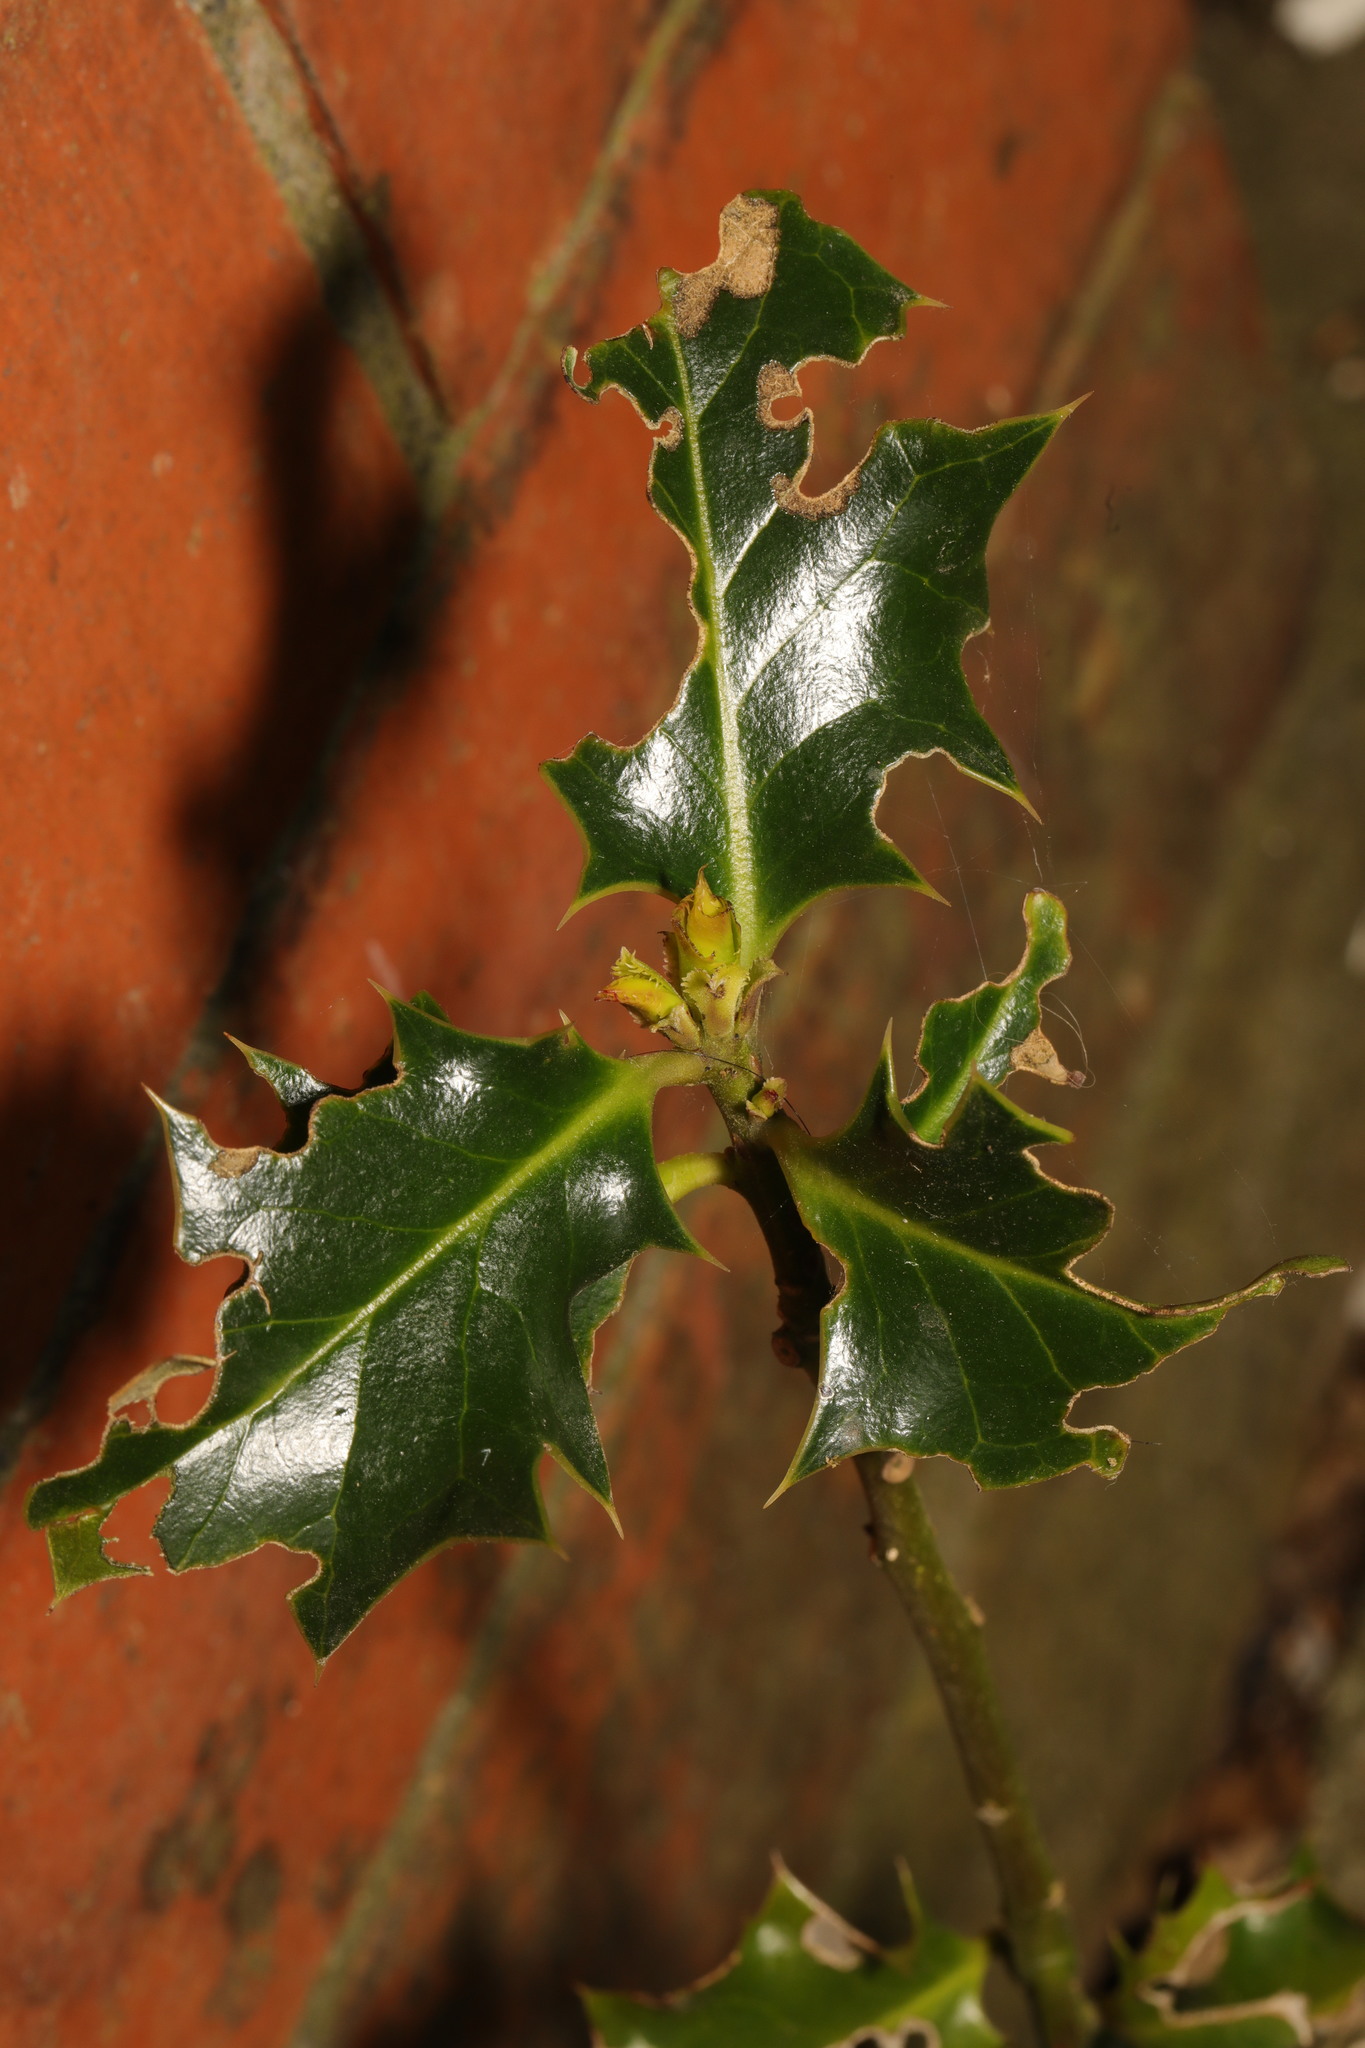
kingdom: Plantae
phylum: Tracheophyta
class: Magnoliopsida
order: Aquifoliales
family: Aquifoliaceae
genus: Ilex
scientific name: Ilex aquifolium
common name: English holly
